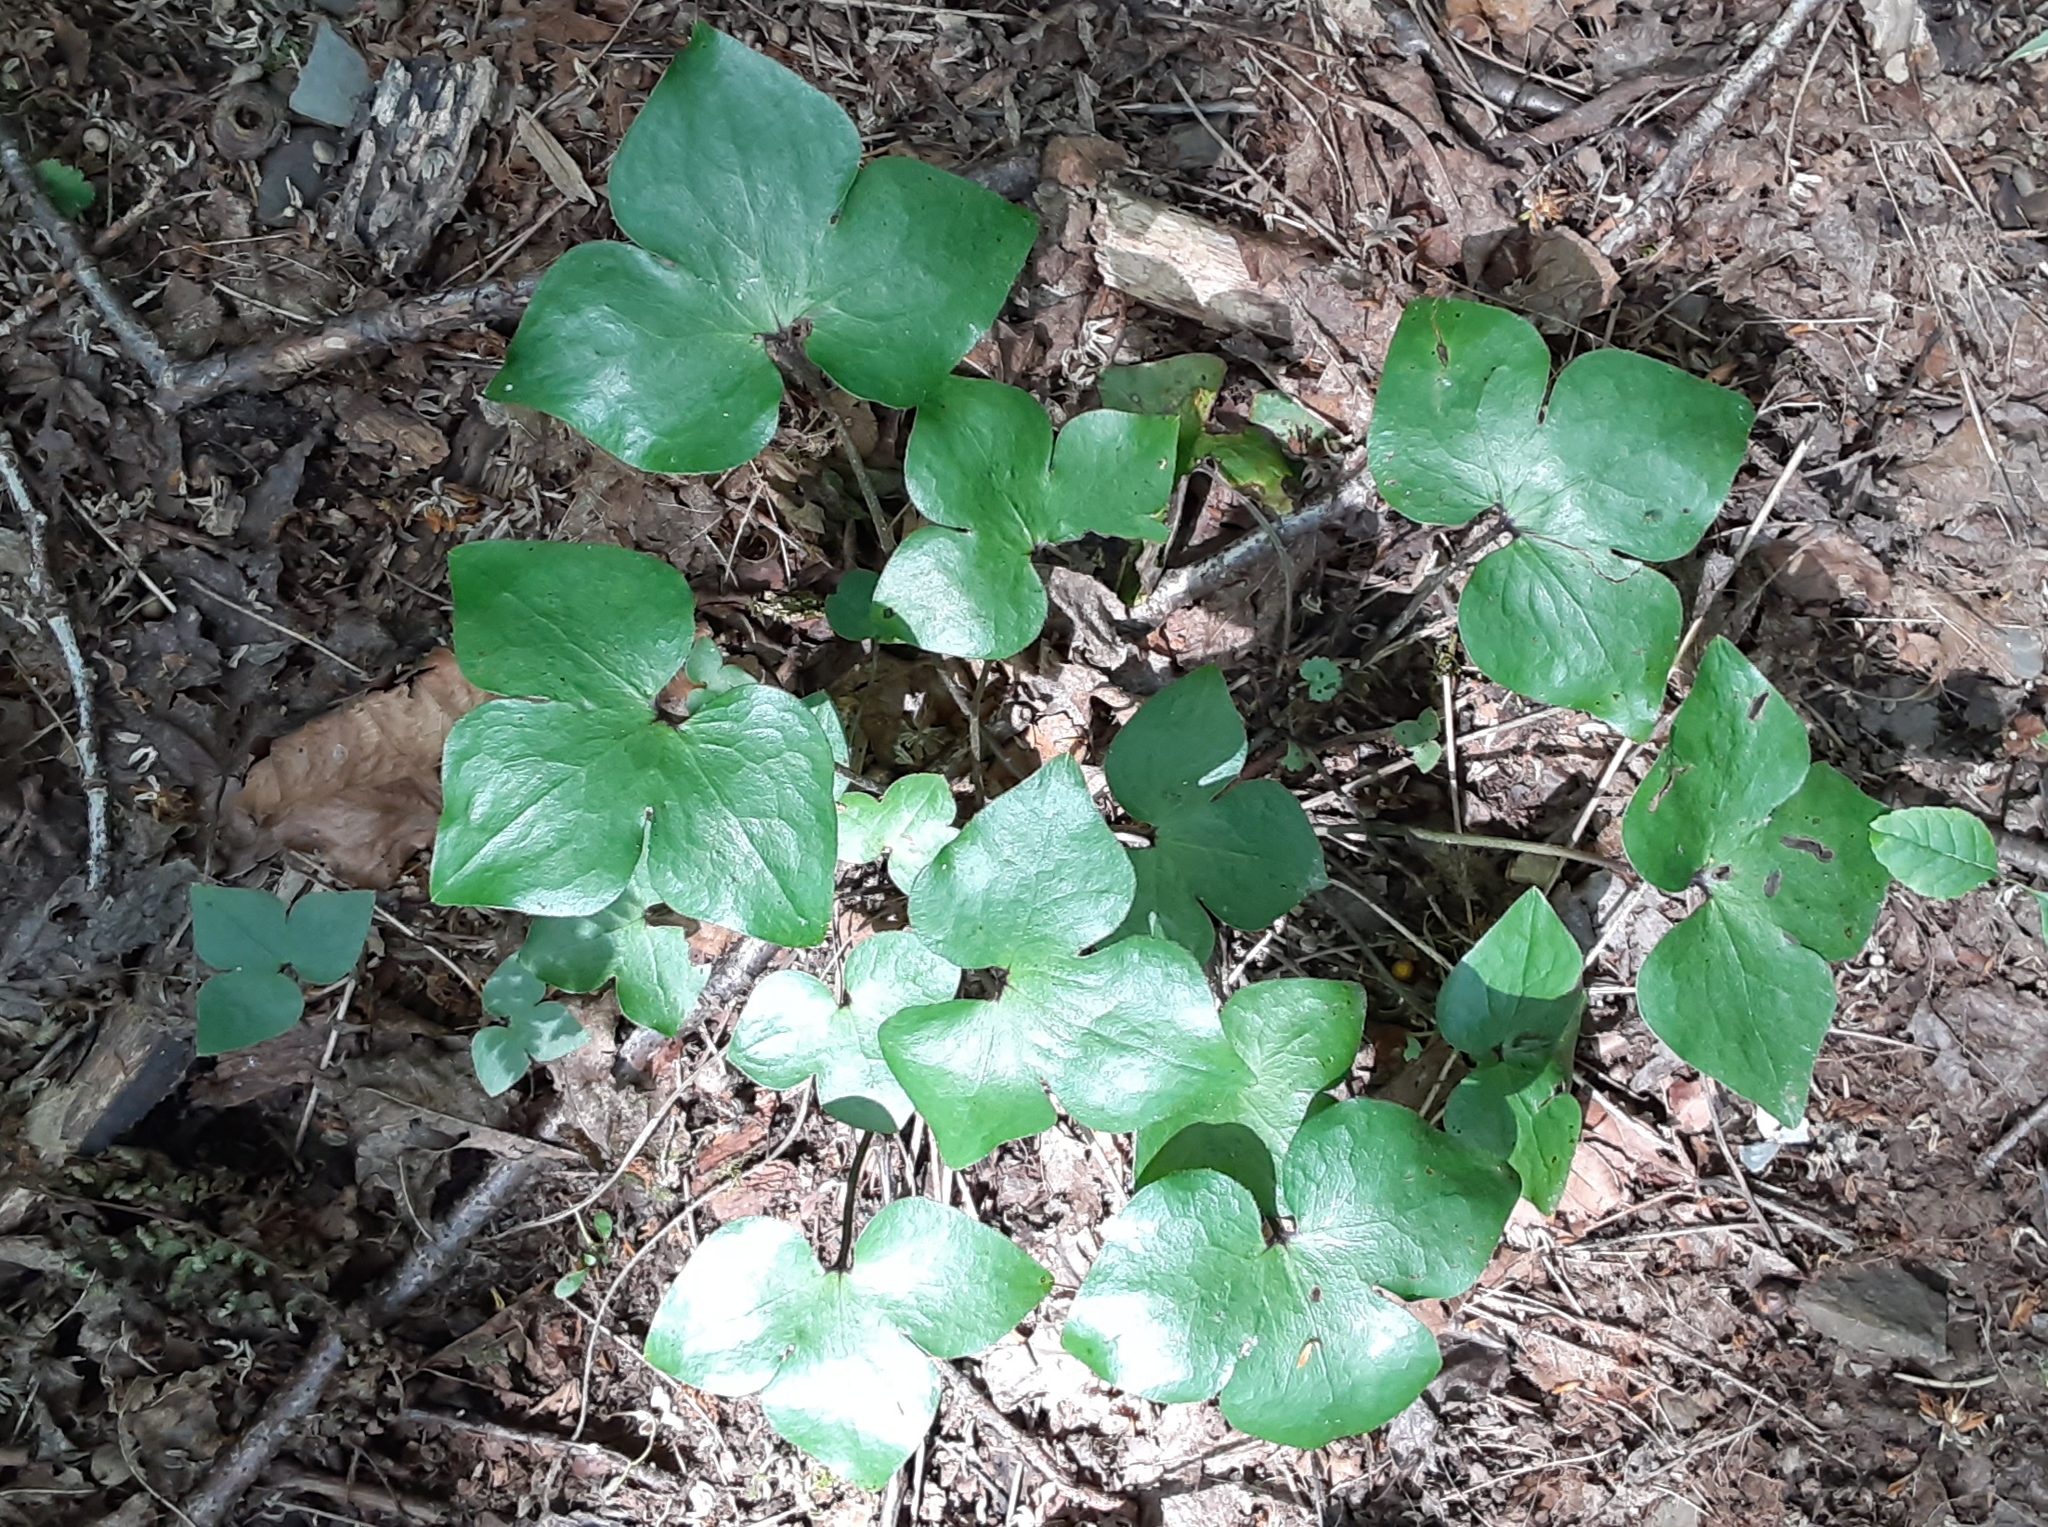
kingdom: Plantae
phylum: Tracheophyta
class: Magnoliopsida
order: Ranunculales
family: Ranunculaceae
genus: Hepatica
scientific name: Hepatica acutiloba
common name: Sharp-lobed hepatica
